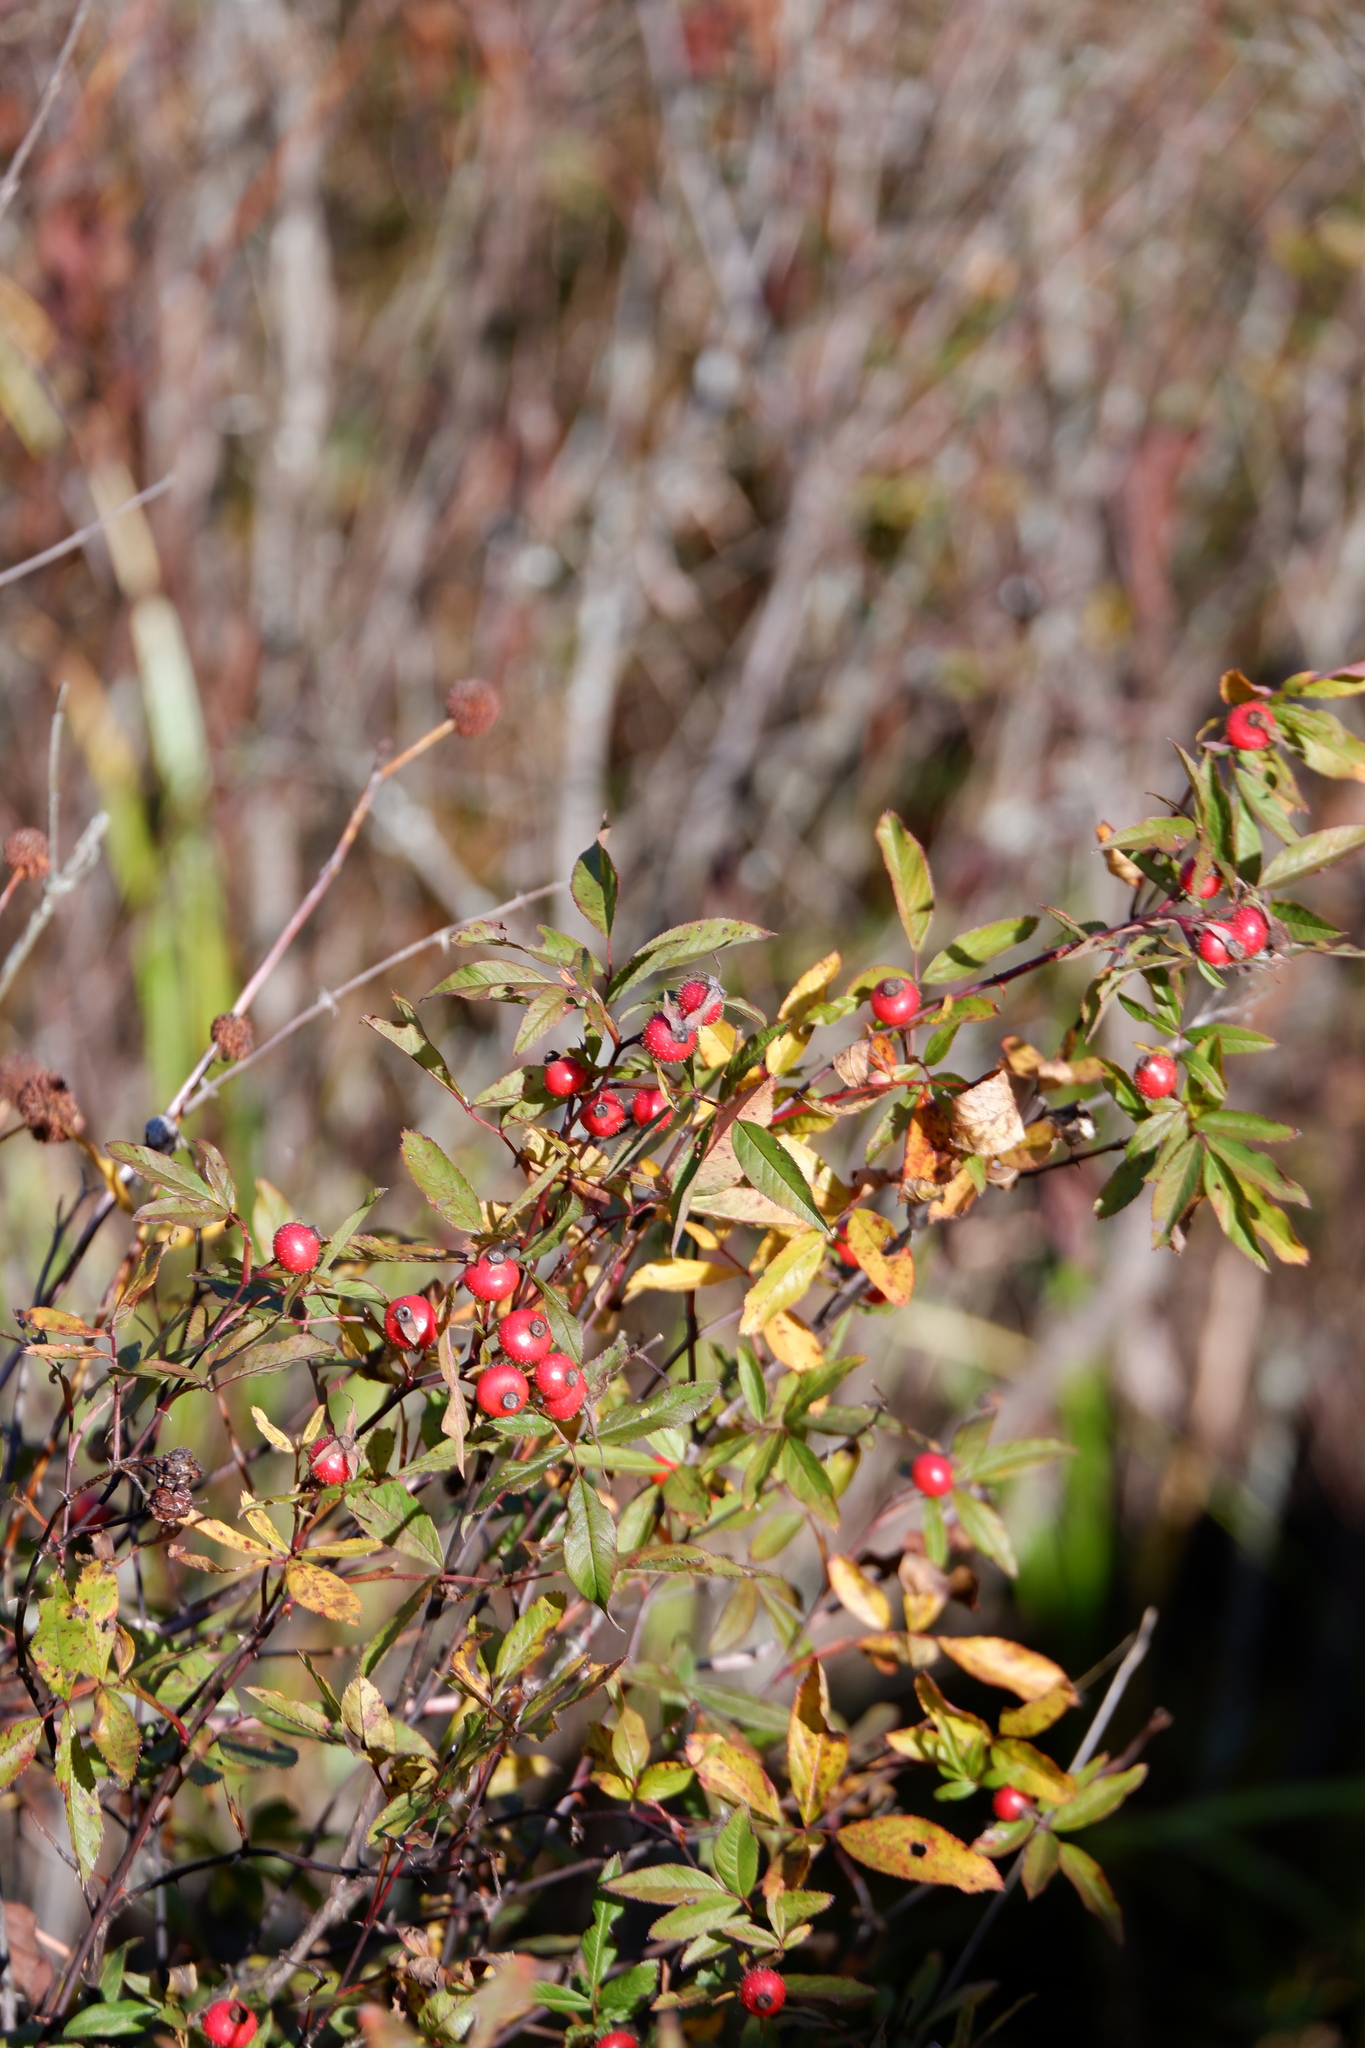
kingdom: Plantae
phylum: Tracheophyta
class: Magnoliopsida
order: Rosales
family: Rosaceae
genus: Rosa
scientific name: Rosa palustris
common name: Swamp rose
